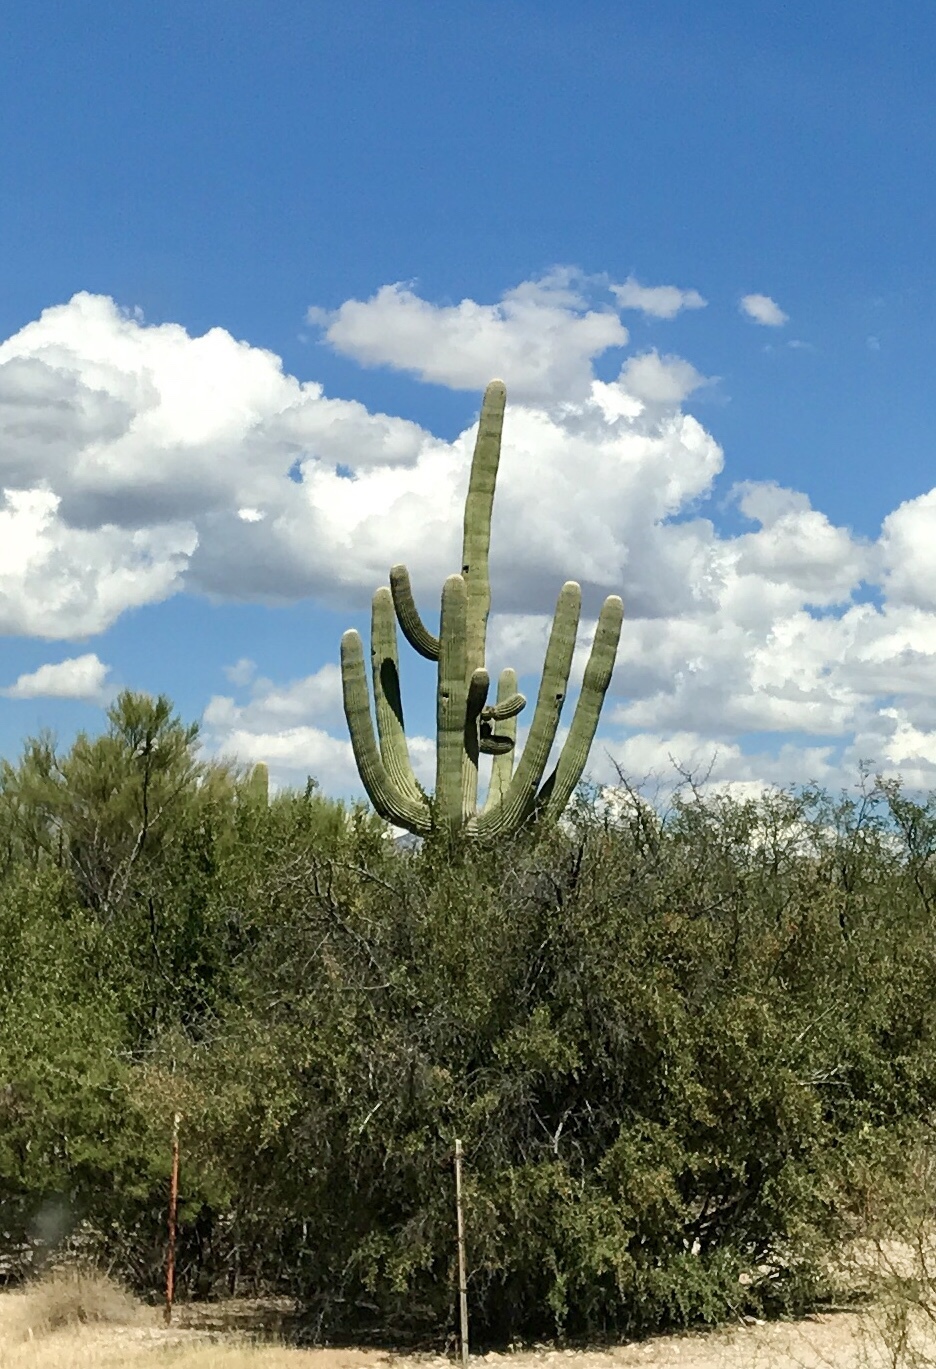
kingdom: Plantae
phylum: Tracheophyta
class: Magnoliopsida
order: Caryophyllales
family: Cactaceae
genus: Carnegiea
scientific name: Carnegiea gigantea
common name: Saguaro
